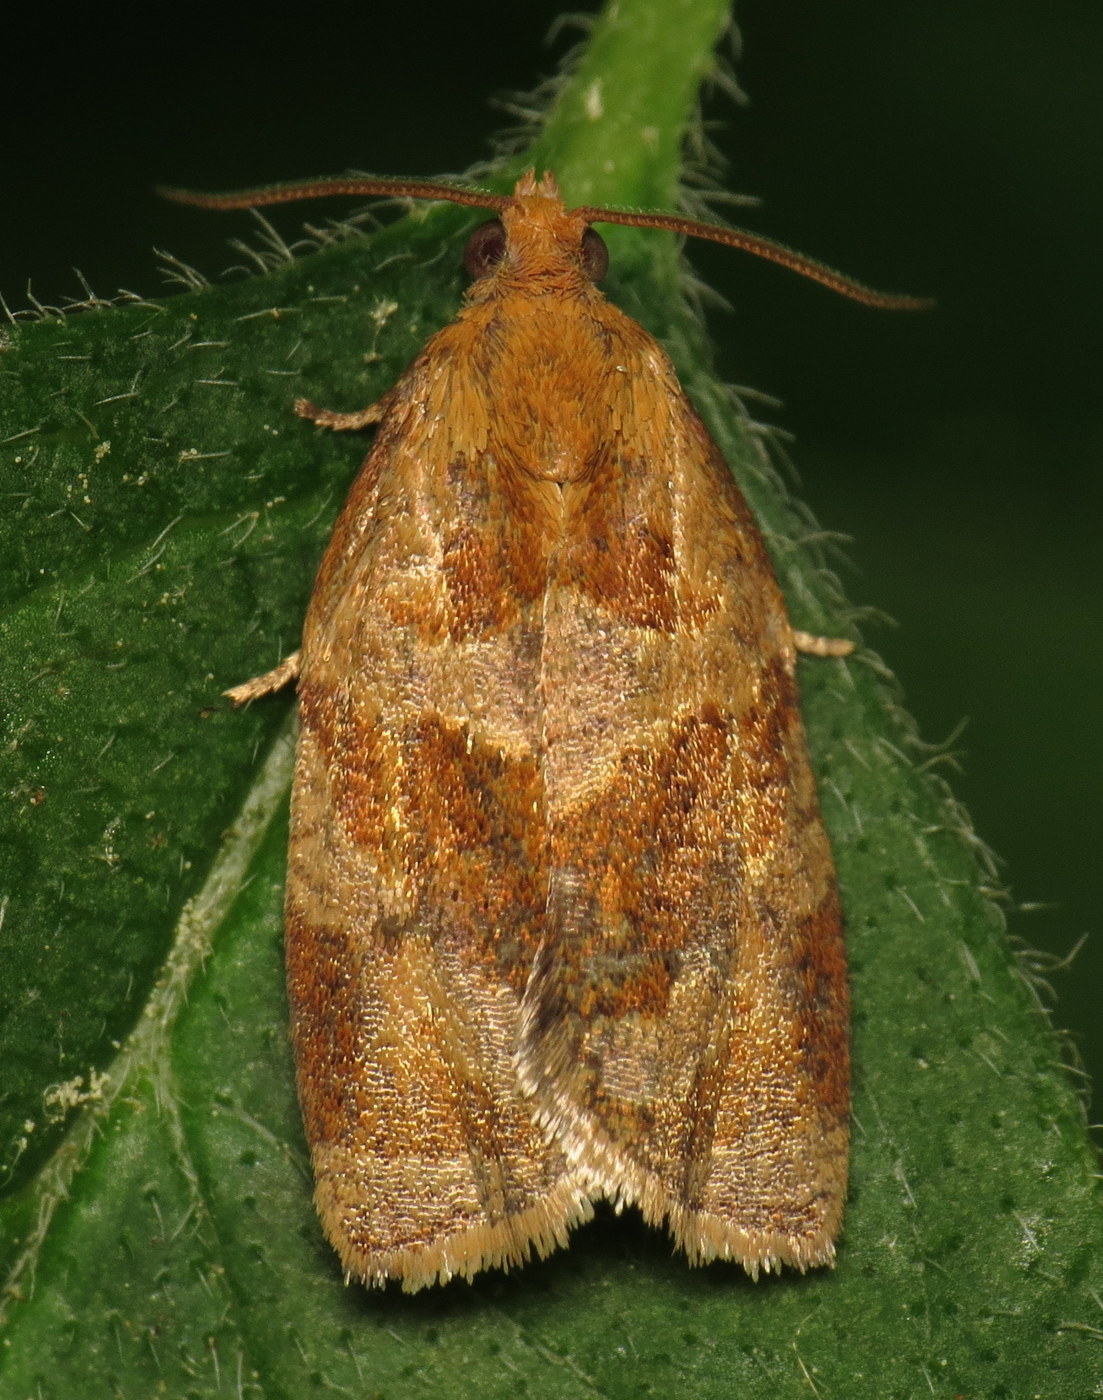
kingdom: Animalia
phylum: Arthropoda
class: Insecta
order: Lepidoptera
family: Tortricidae
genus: Archips
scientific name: Archips rosana
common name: Rose tortrix
